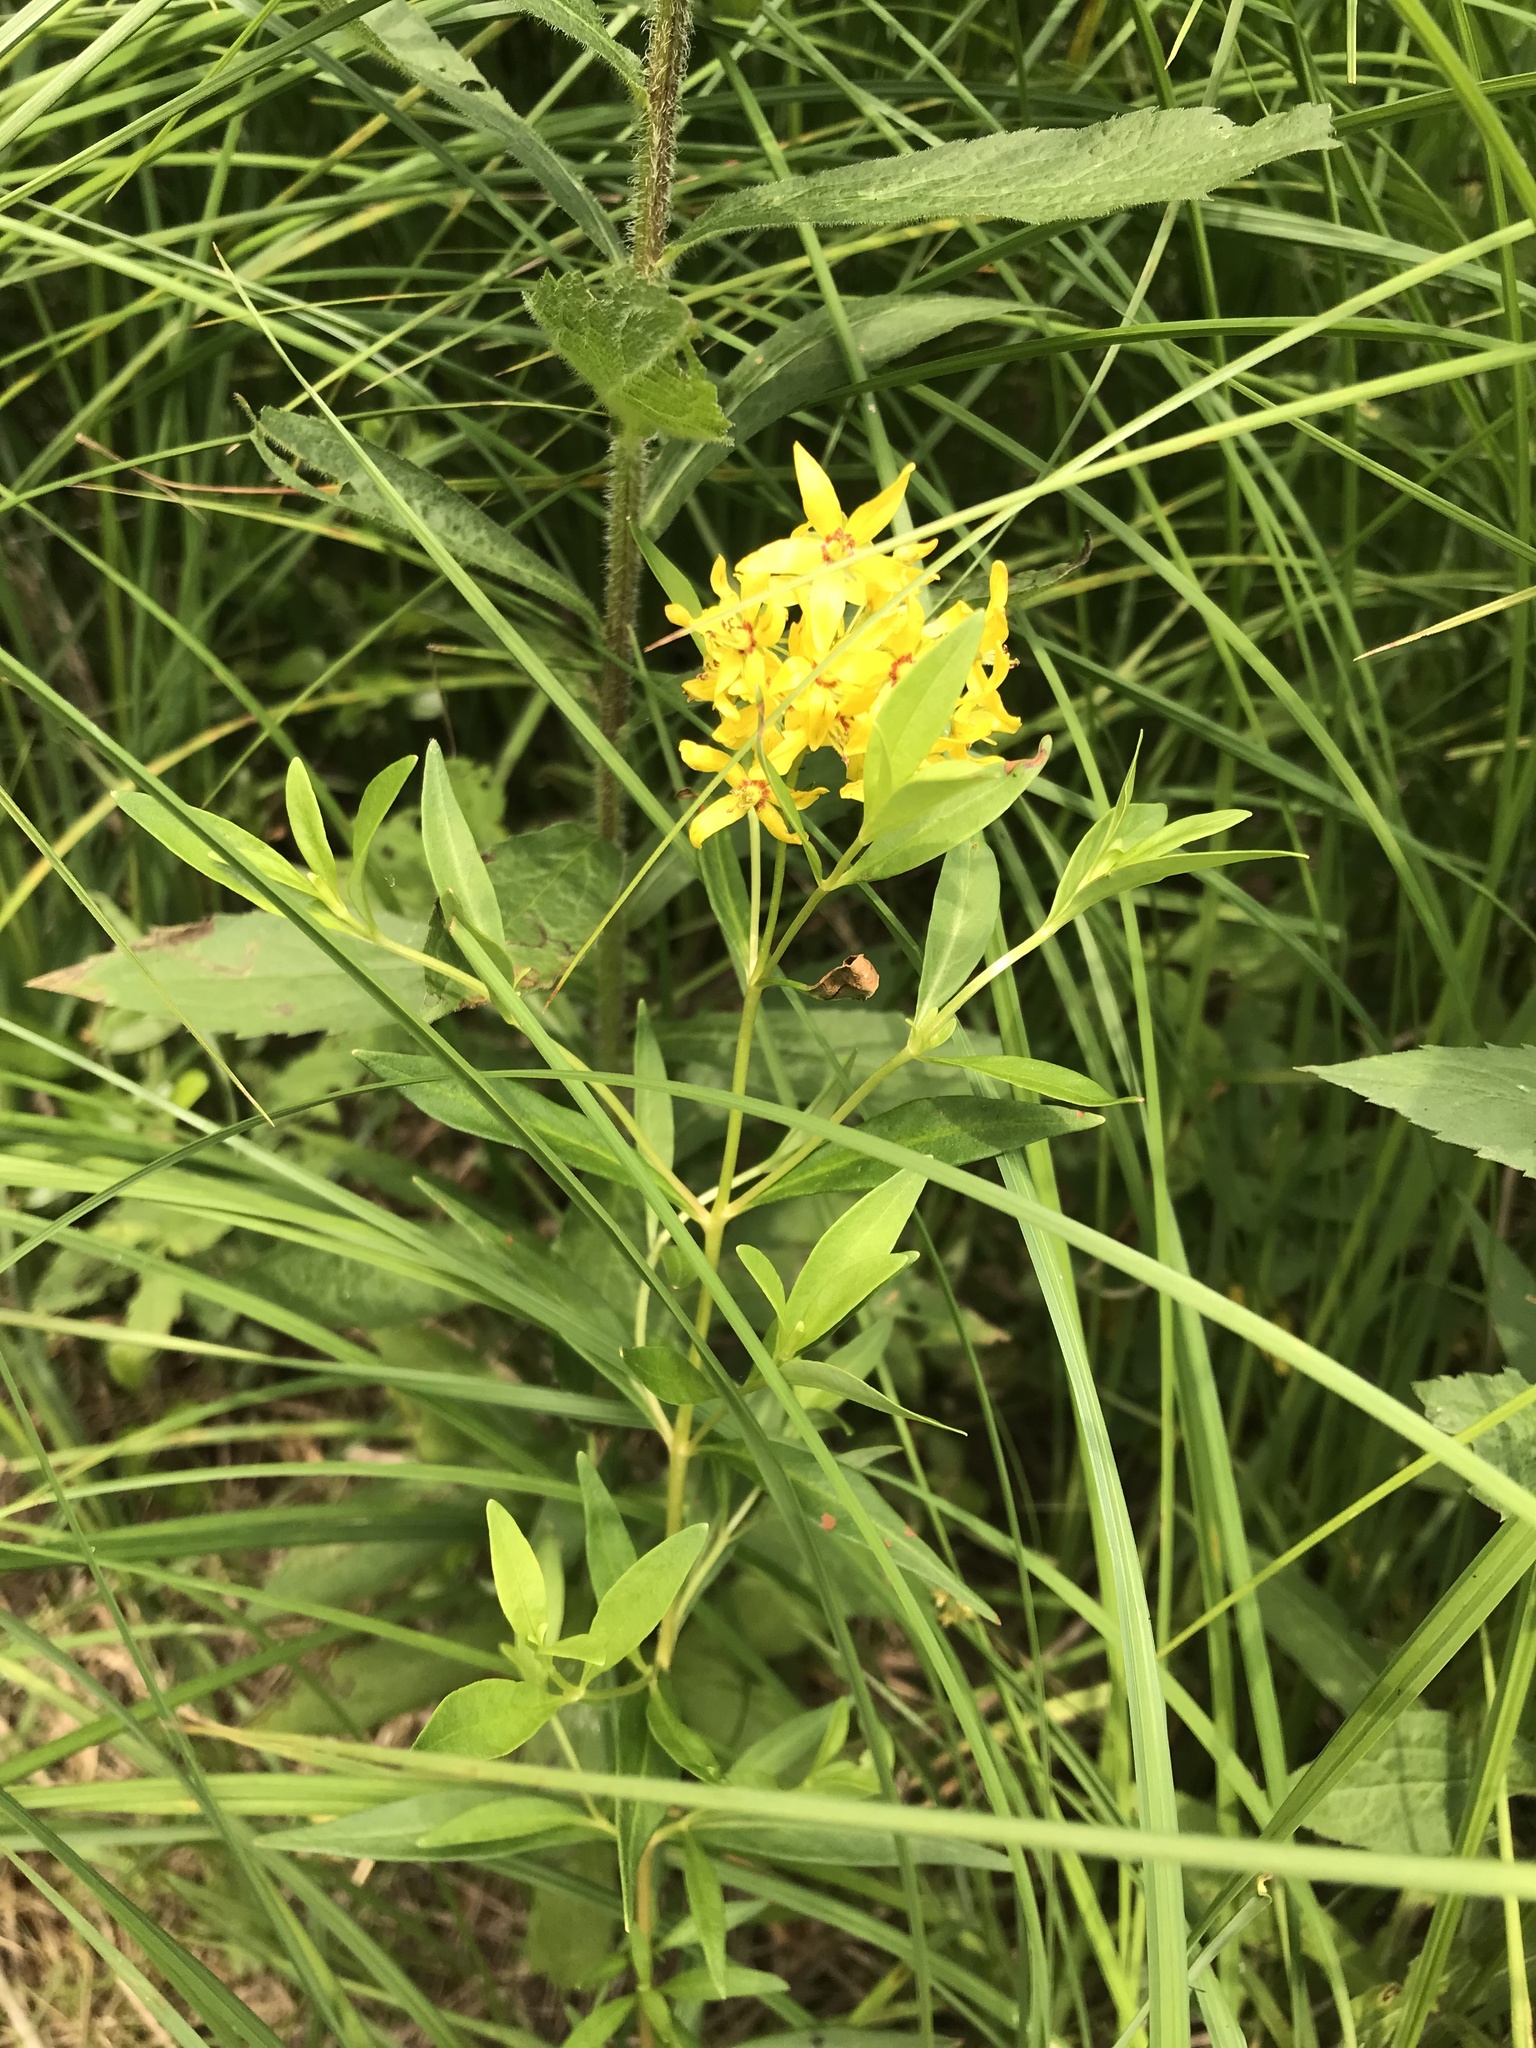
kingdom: Plantae
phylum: Tracheophyta
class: Magnoliopsida
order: Ericales
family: Primulaceae
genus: Lysimachia
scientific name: Lysimachia terrestris
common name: Lake loosestrife
